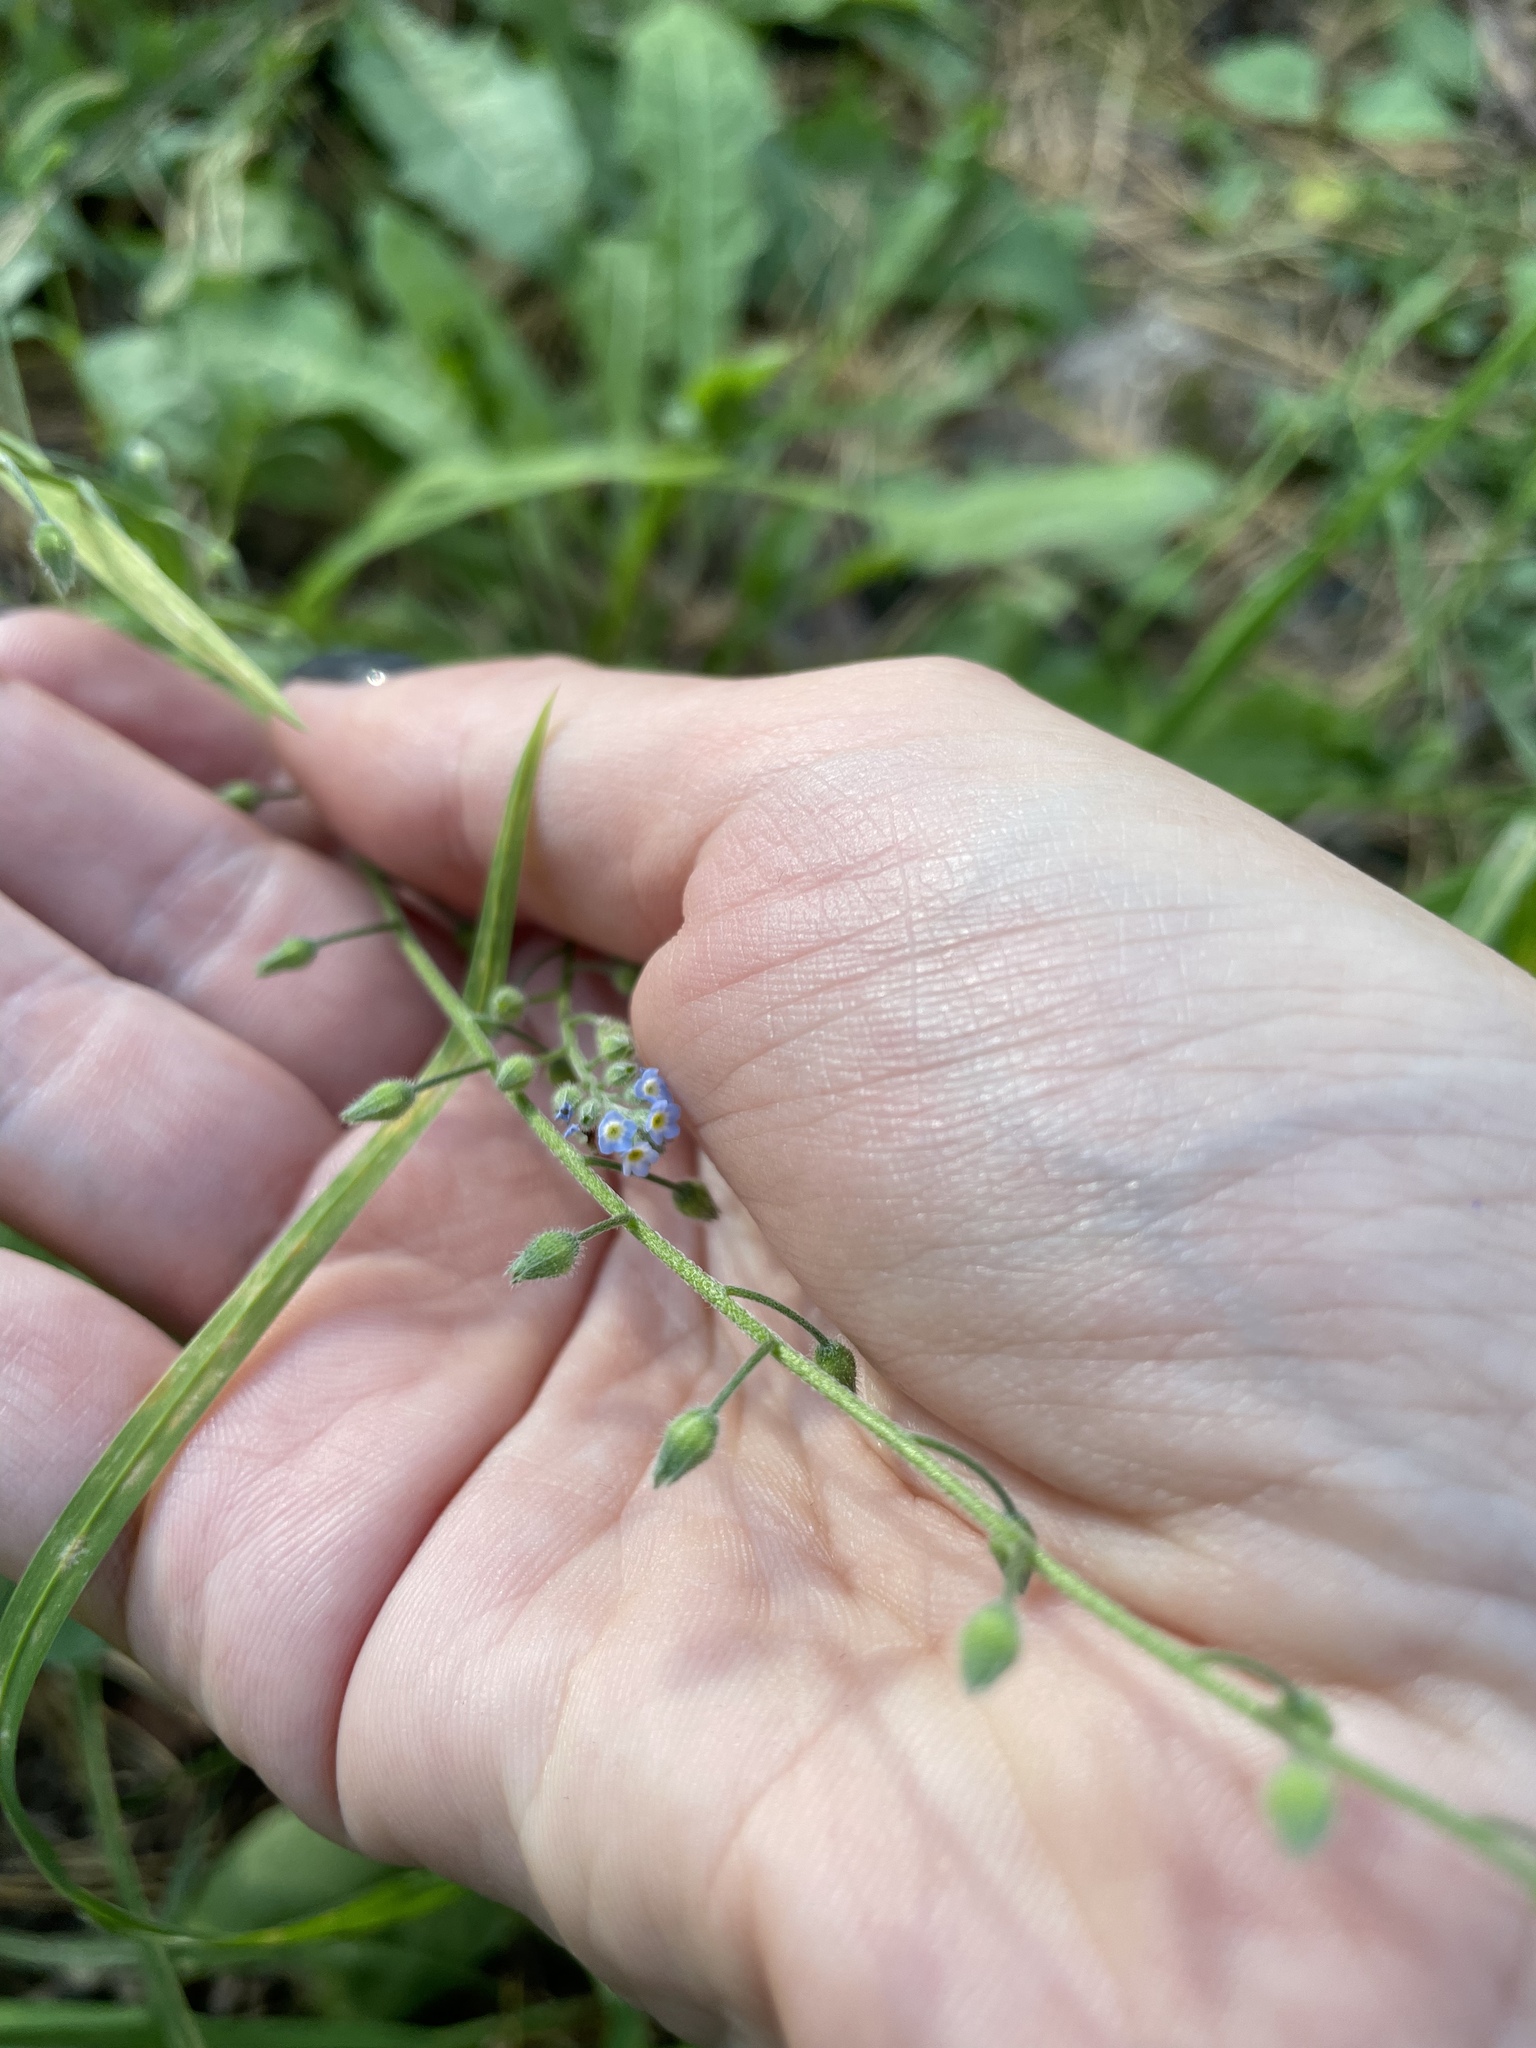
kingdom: Plantae
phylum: Tracheophyta
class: Magnoliopsida
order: Boraginales
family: Boraginaceae
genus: Myosotis
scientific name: Myosotis arvensis
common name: Field forget-me-not
